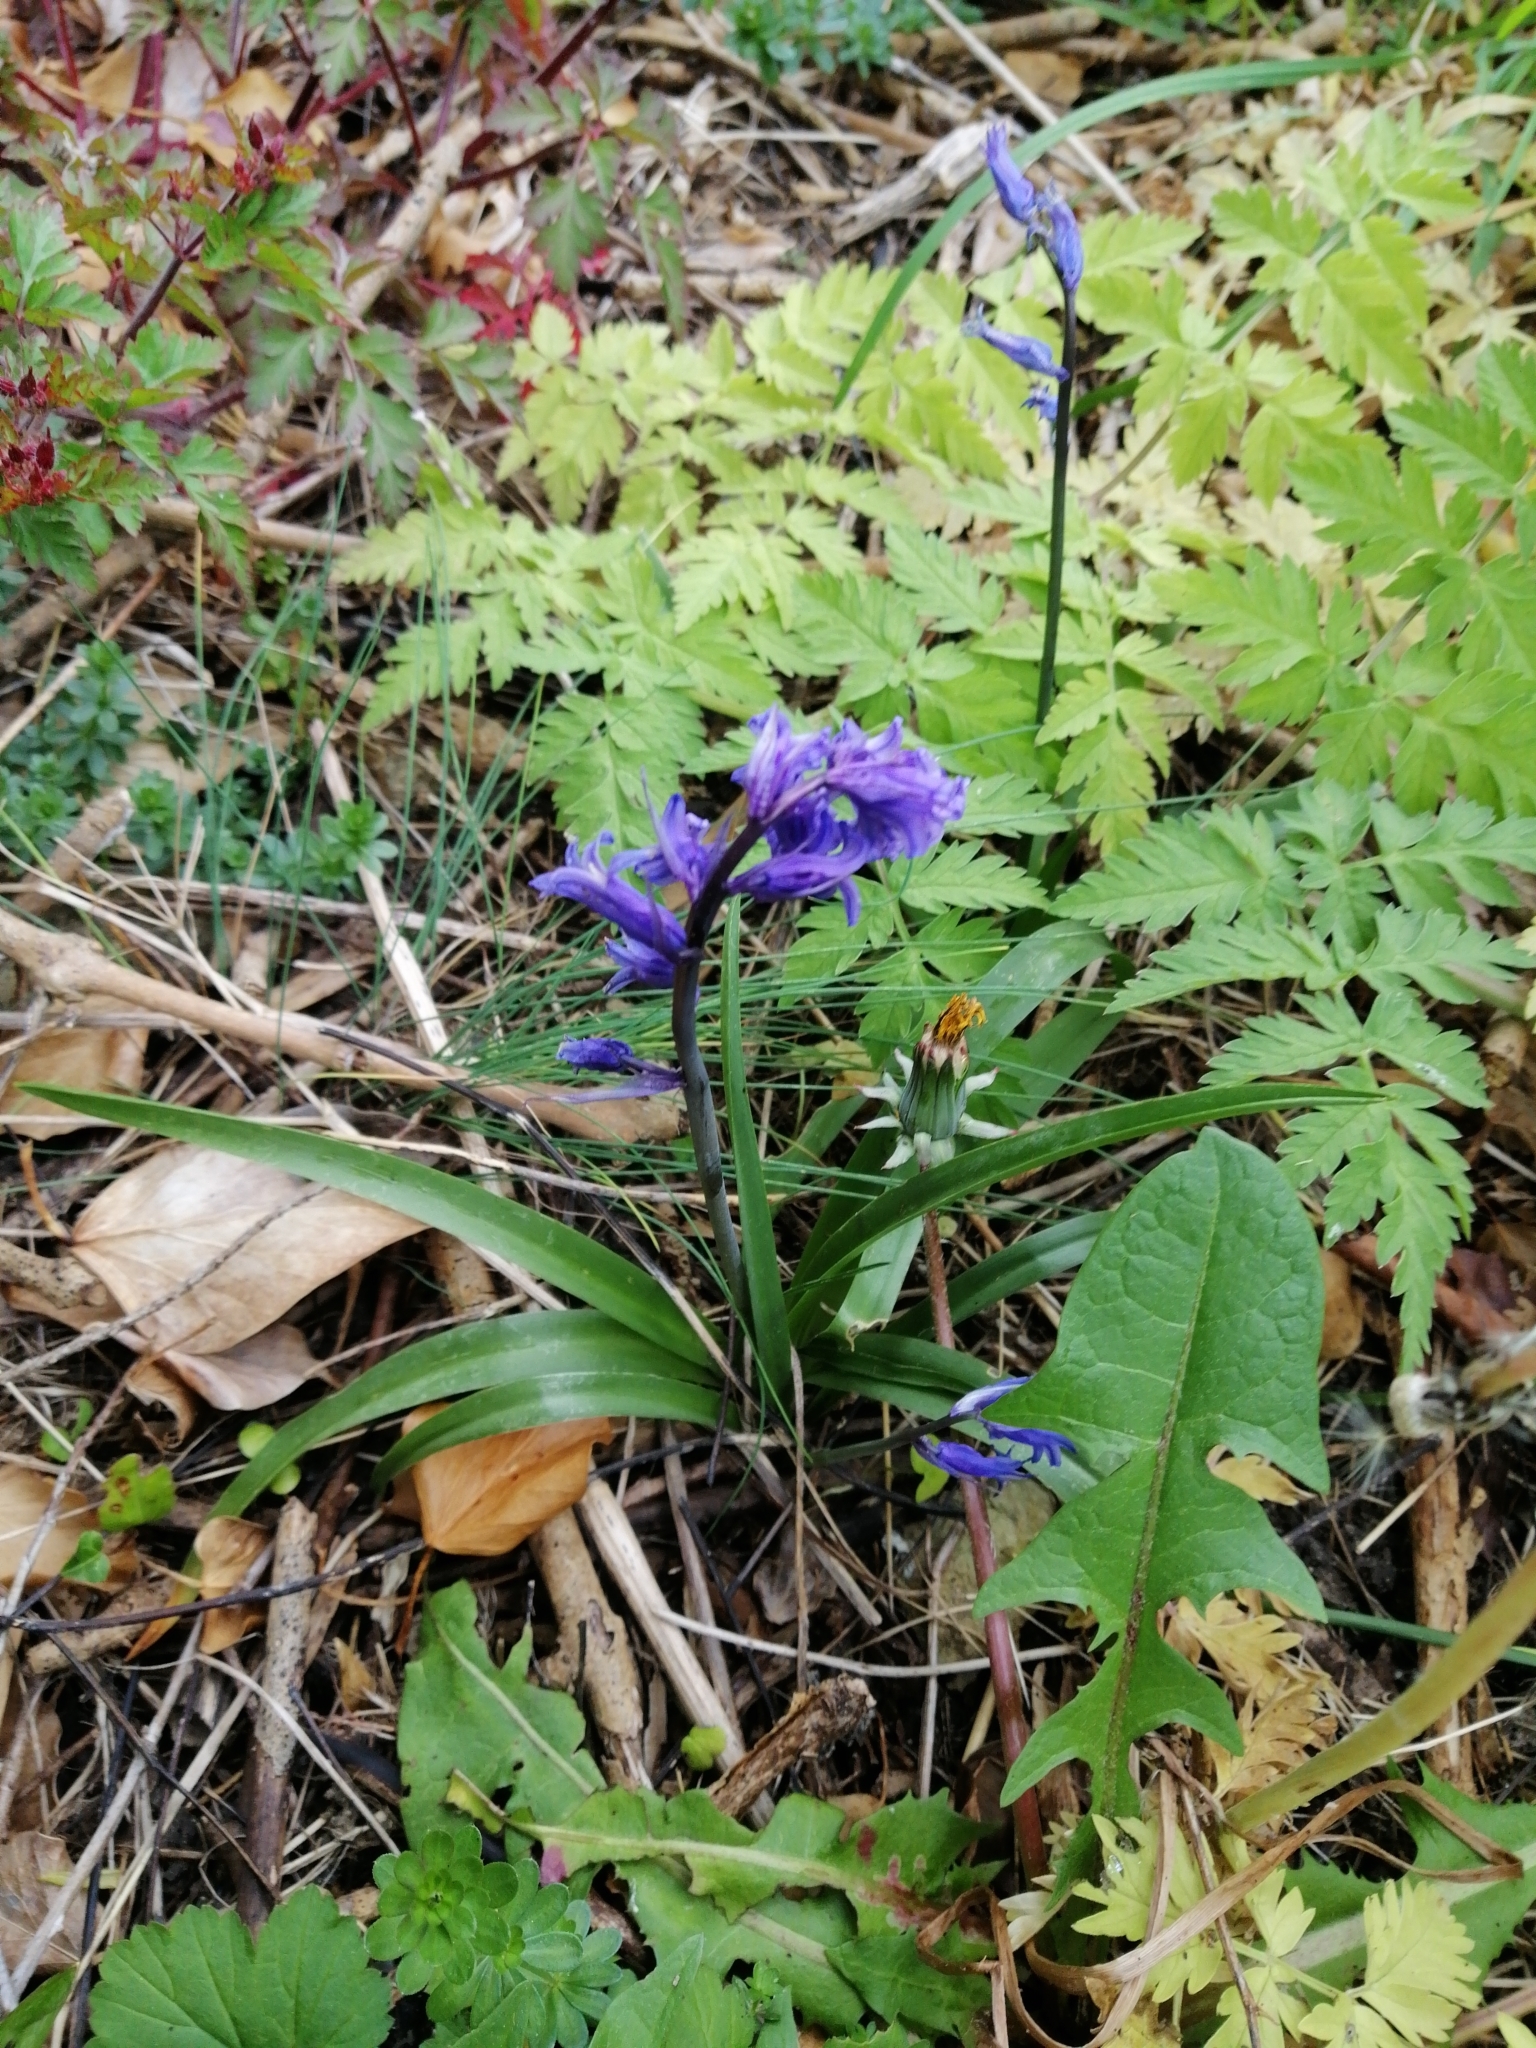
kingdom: Plantae
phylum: Tracheophyta
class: Liliopsida
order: Asparagales
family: Asparagaceae
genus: Hyacinthoides
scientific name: Hyacinthoides non-scripta
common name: Bluebell
